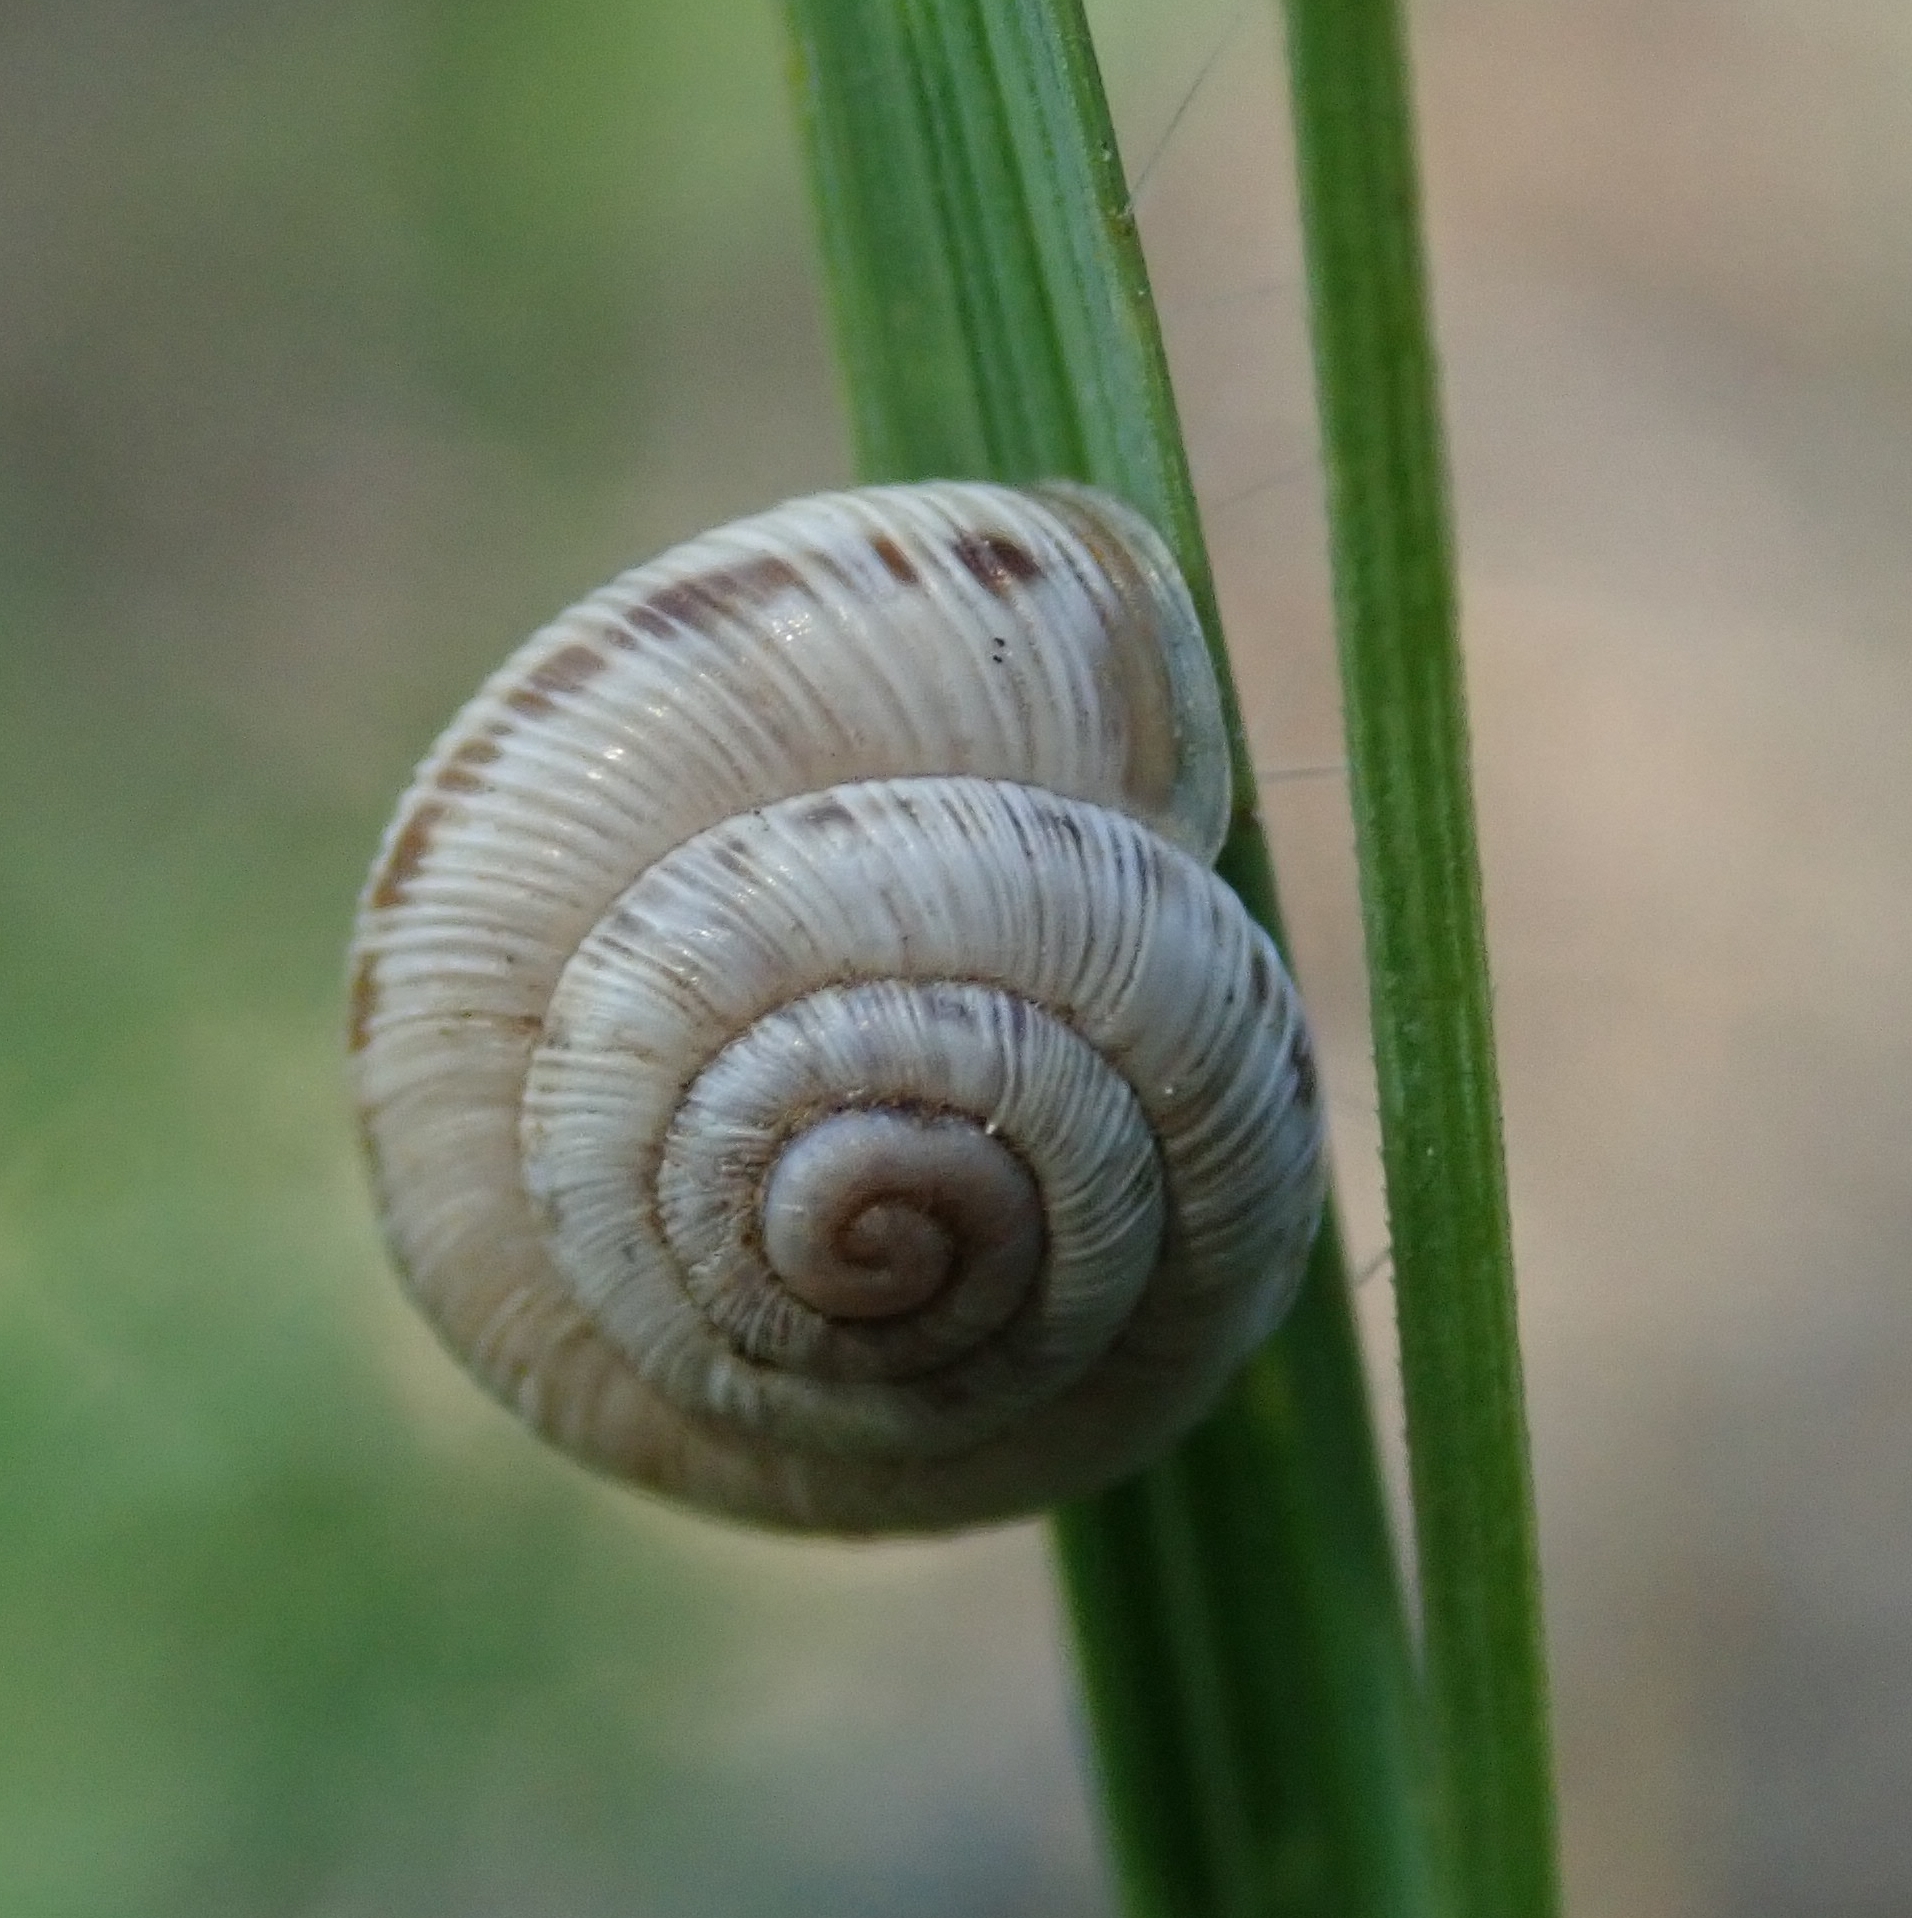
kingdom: Animalia
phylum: Mollusca
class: Gastropoda
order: Stylommatophora
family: Geomitridae
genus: Xerocrassa
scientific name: Xerocrassa geyeri
